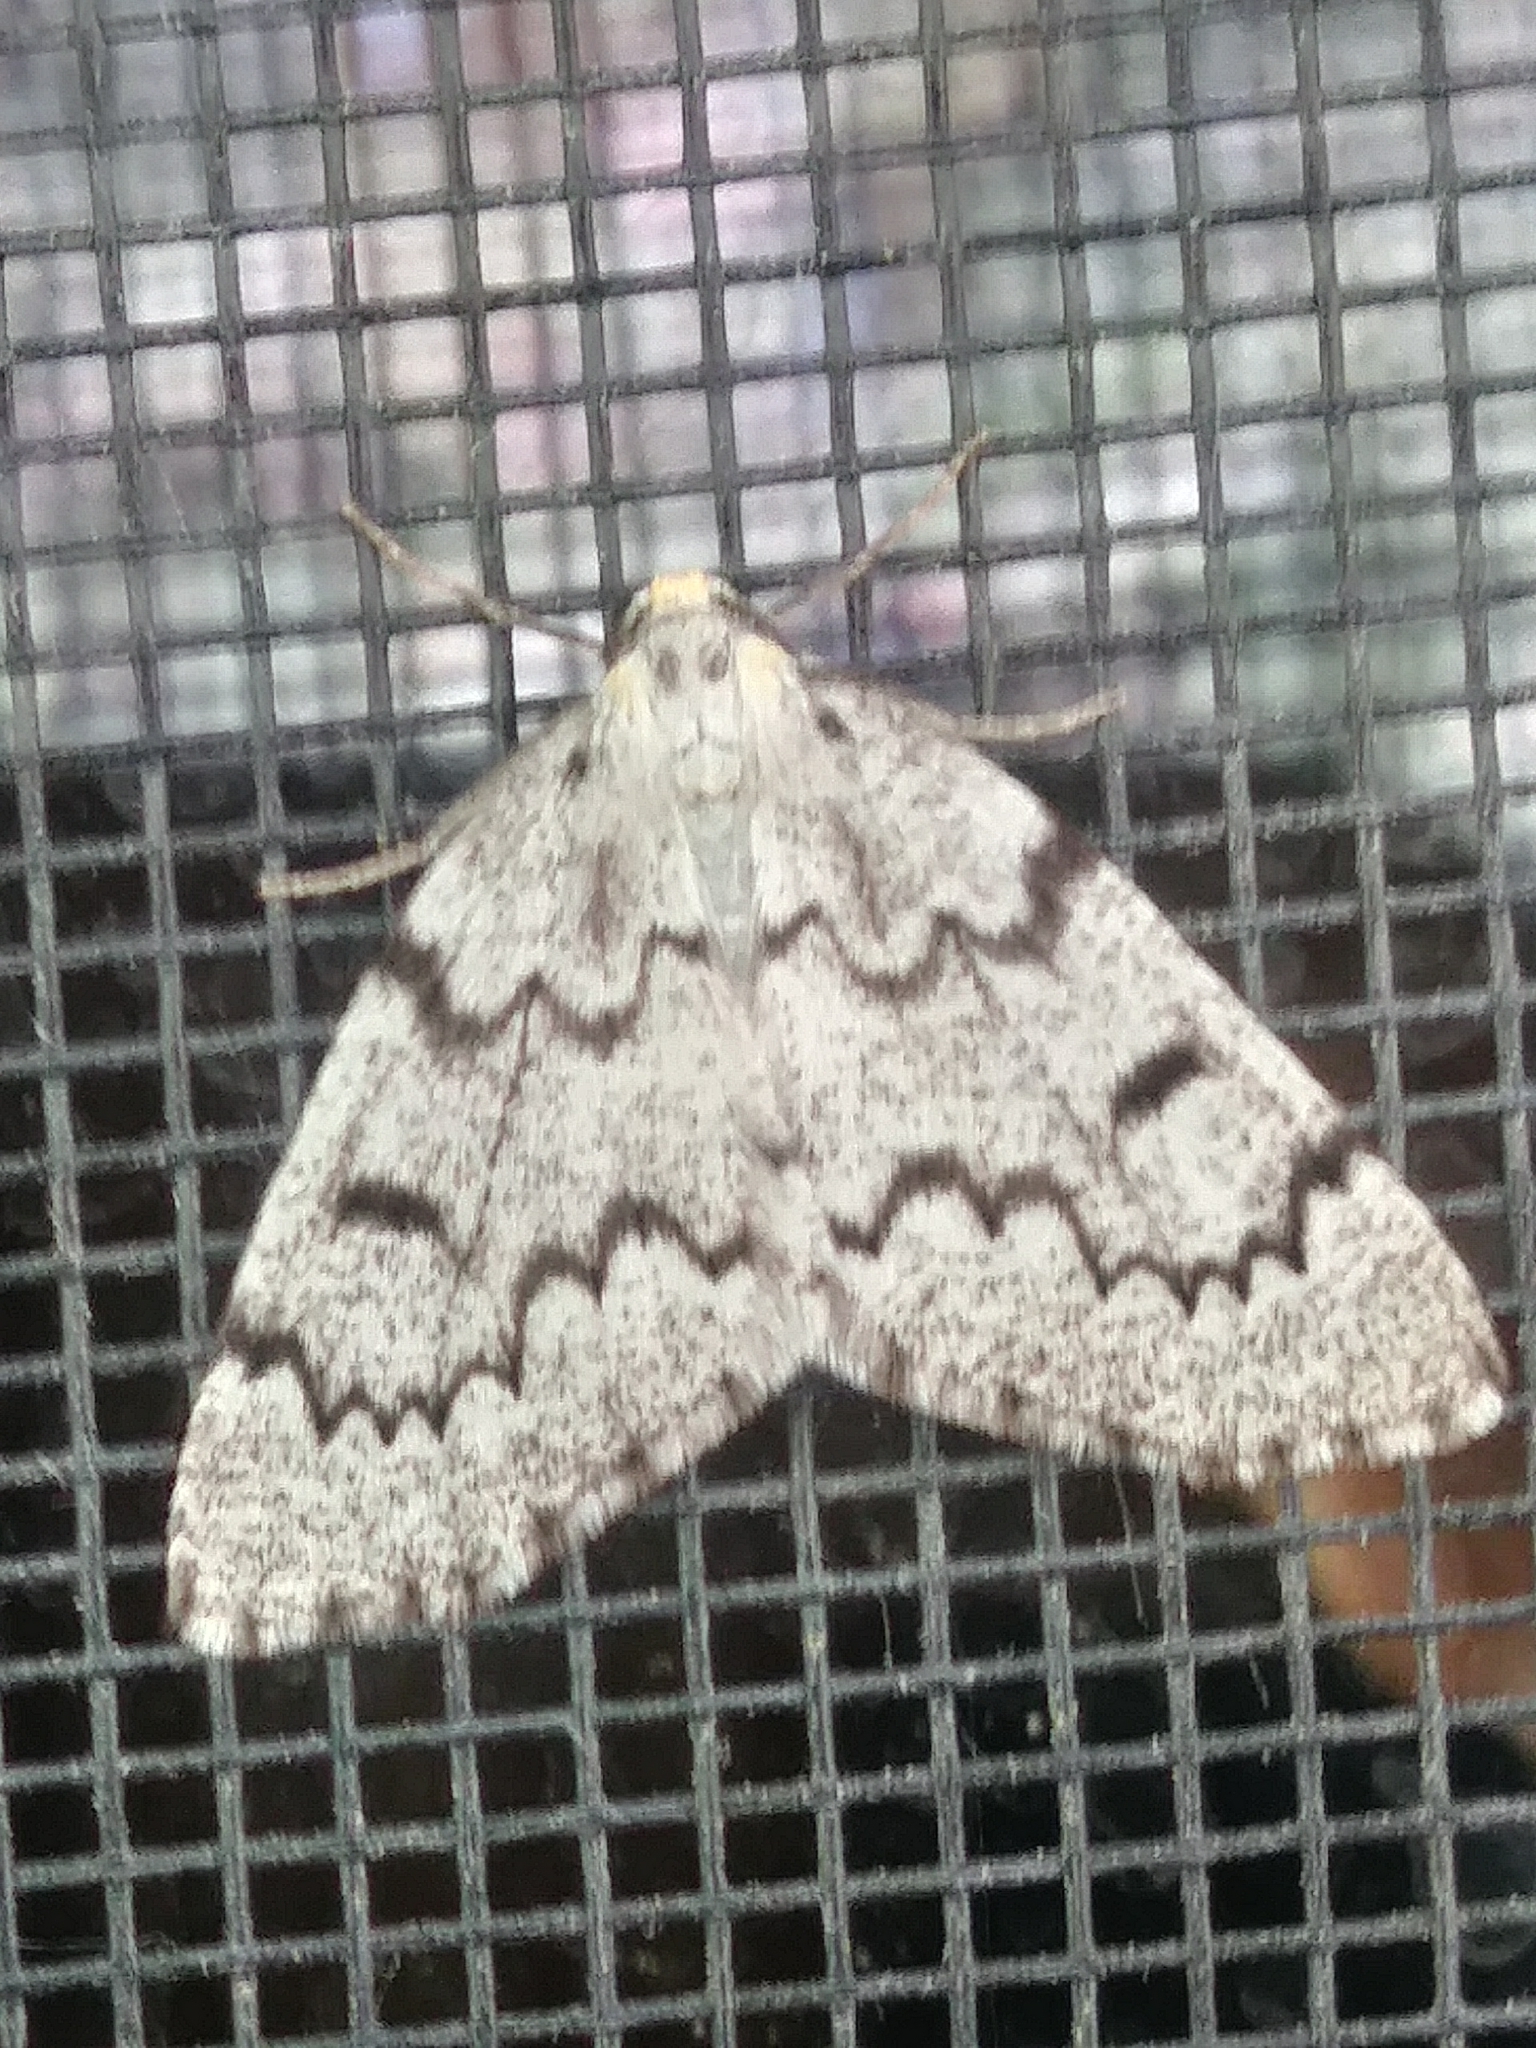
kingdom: Animalia
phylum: Arthropoda
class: Insecta
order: Lepidoptera
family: Geometridae
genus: Nepytia
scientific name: Nepytia canosaria
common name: False hemlock looper
